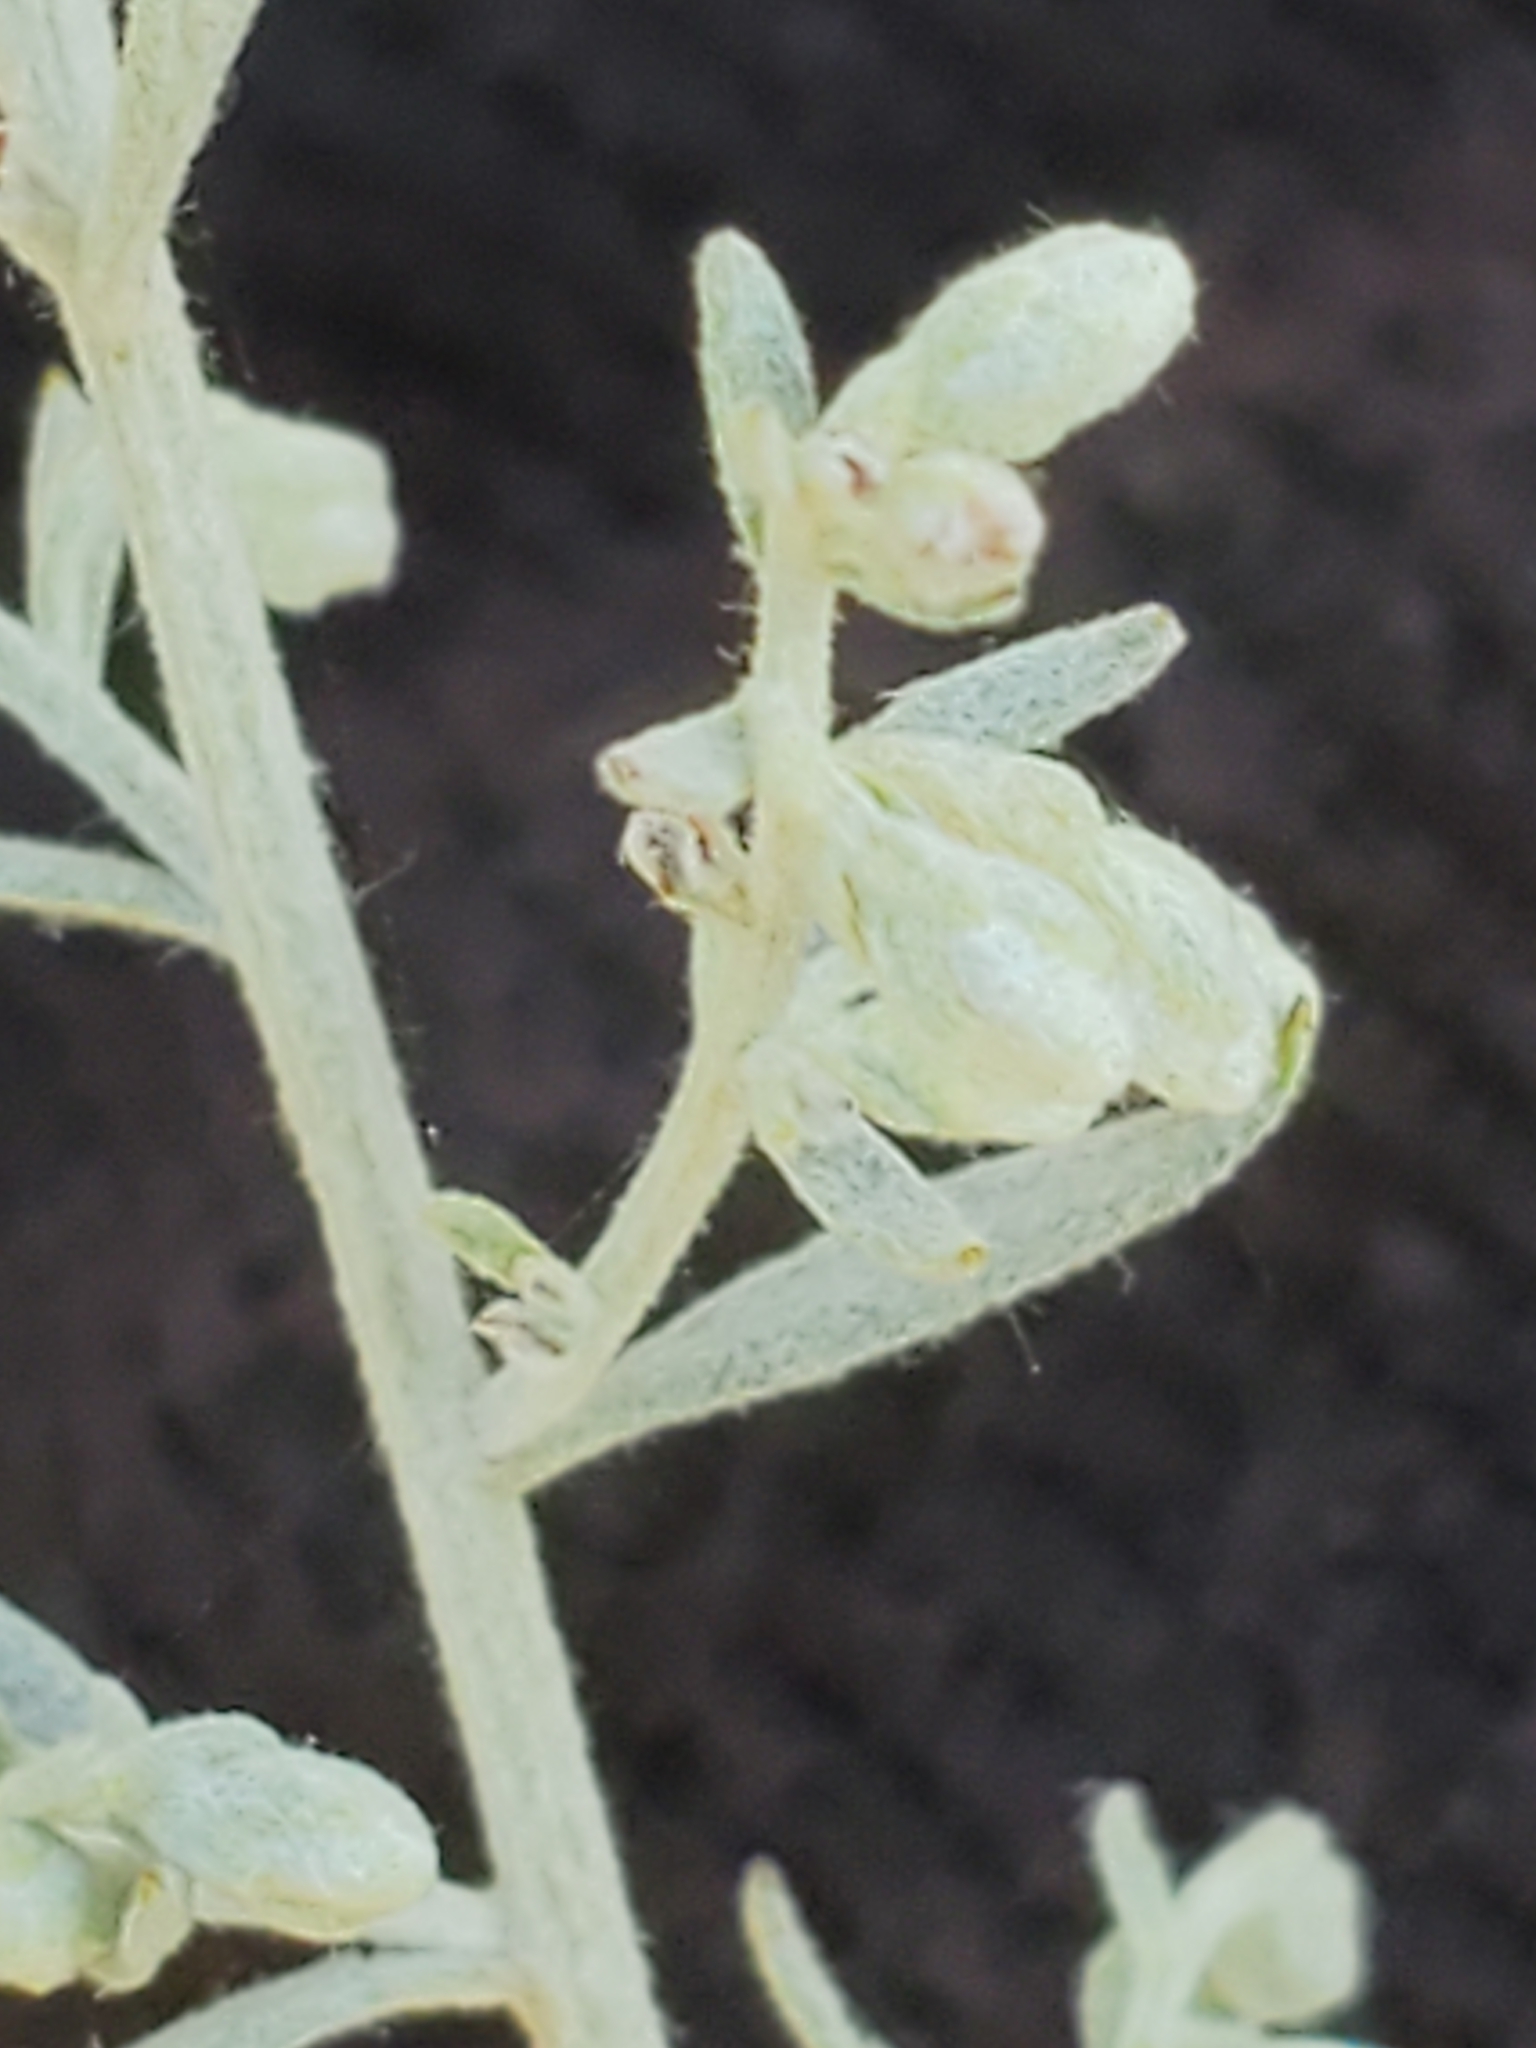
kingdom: Plantae
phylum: Tracheophyta
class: Magnoliopsida
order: Asterales
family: Asteraceae
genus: Artemisia
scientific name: Artemisia ludoviciana
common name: Western mugwort
